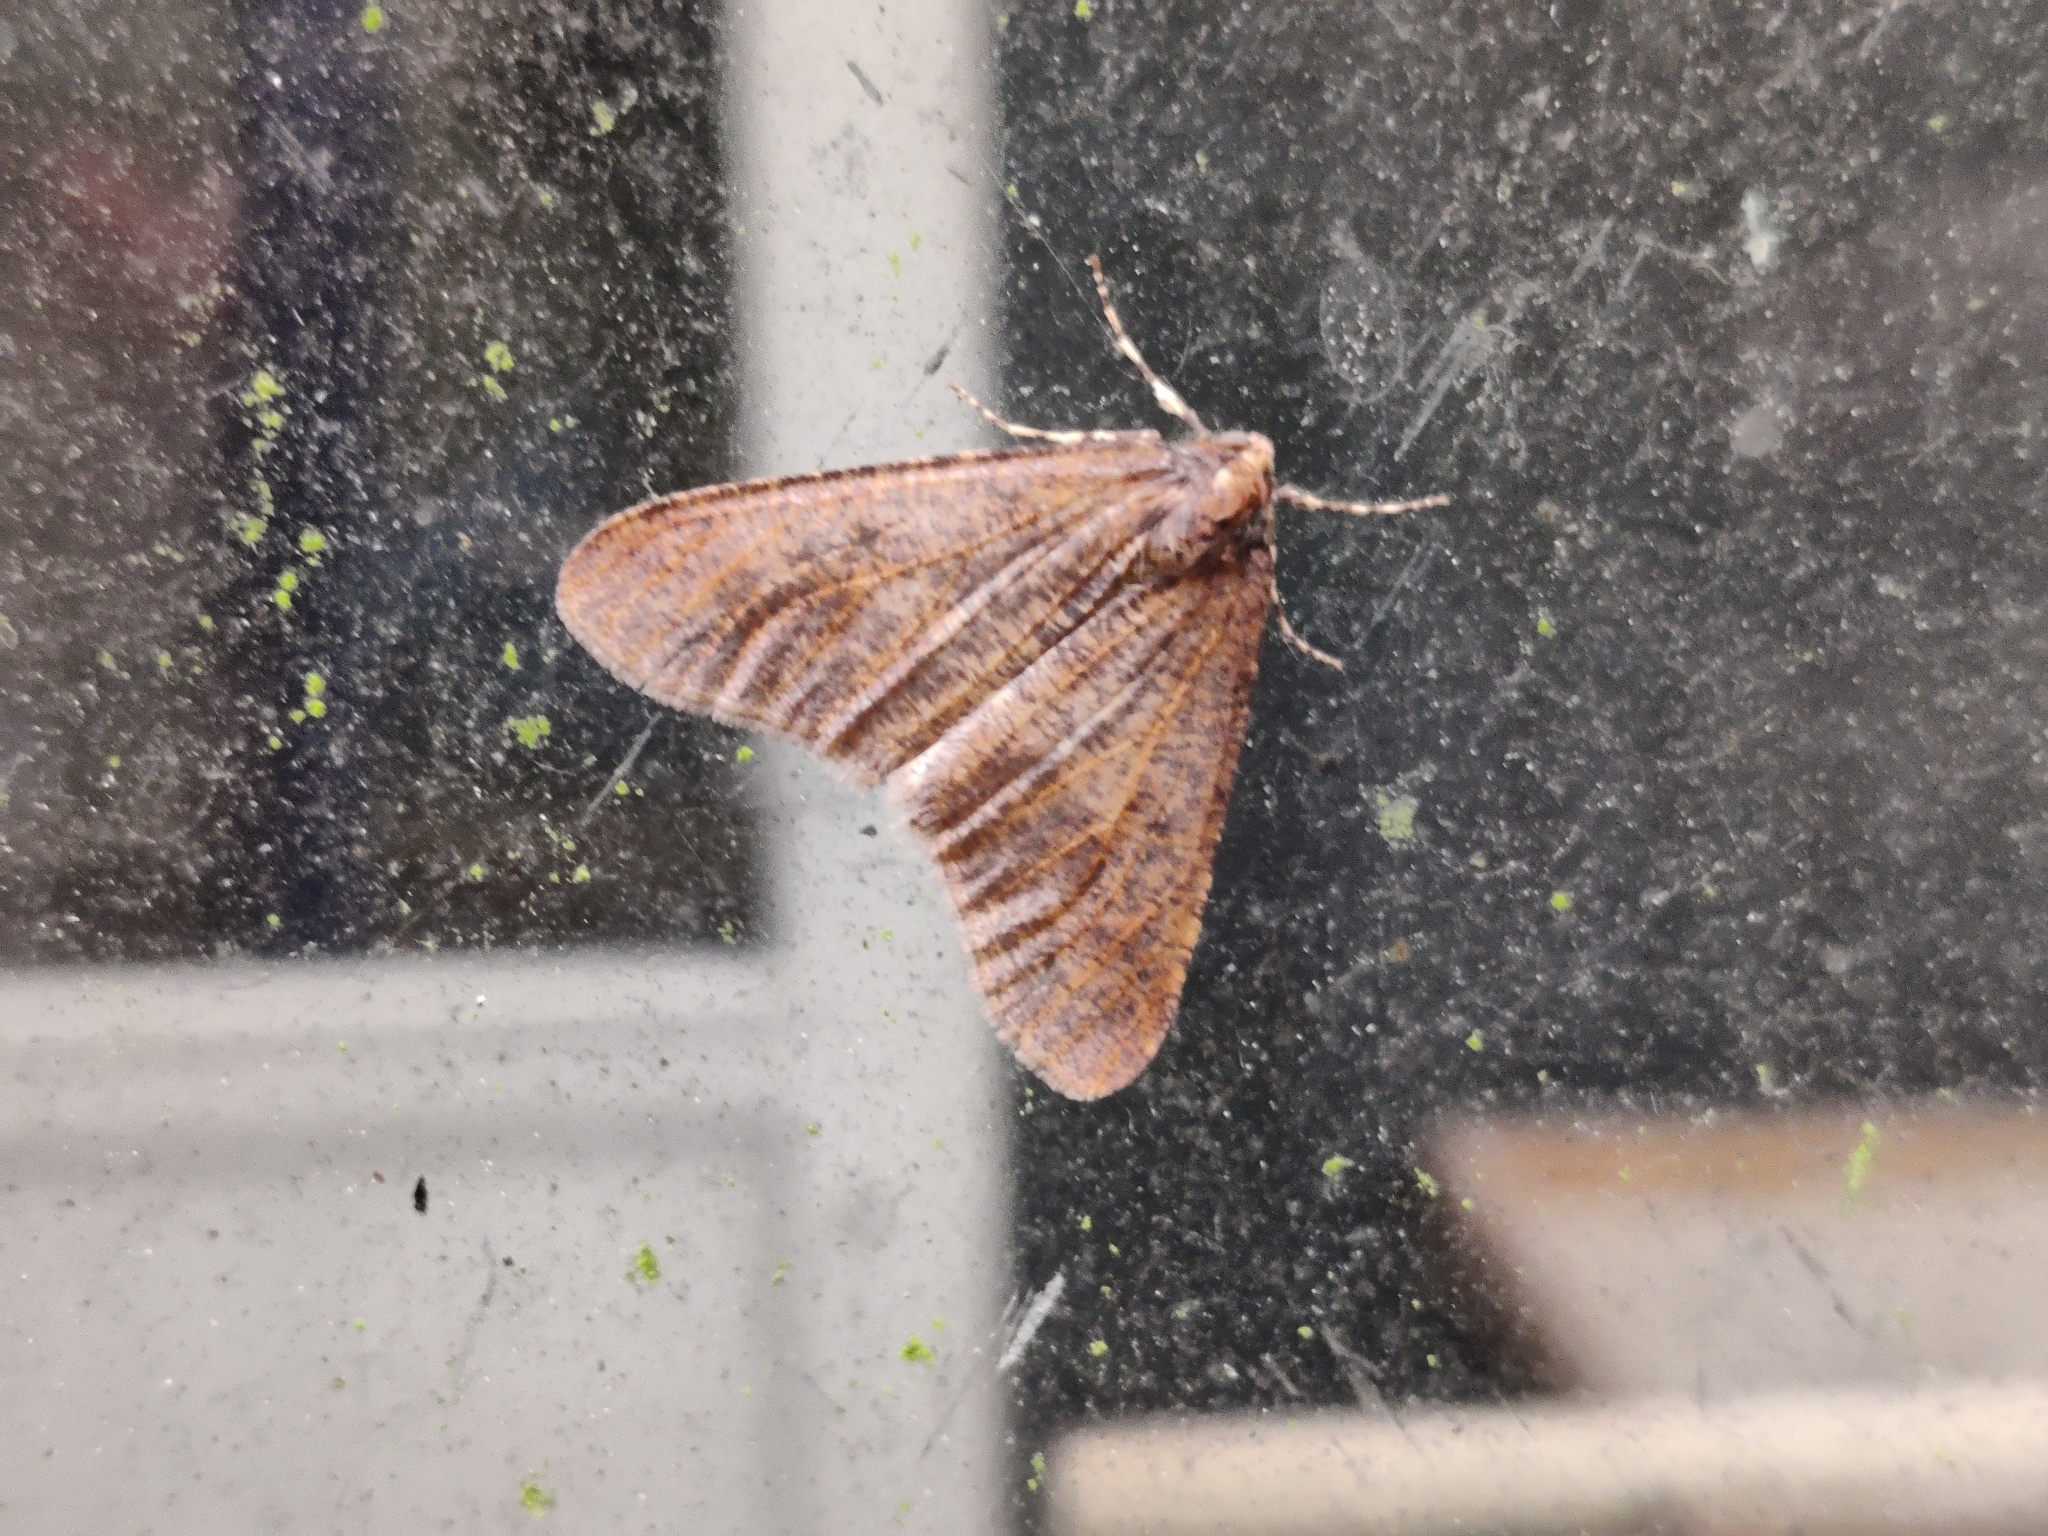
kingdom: Animalia
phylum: Arthropoda
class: Insecta
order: Lepidoptera
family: Geometridae
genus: Erannis
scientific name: Erannis defoliaria
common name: Mottled umber
